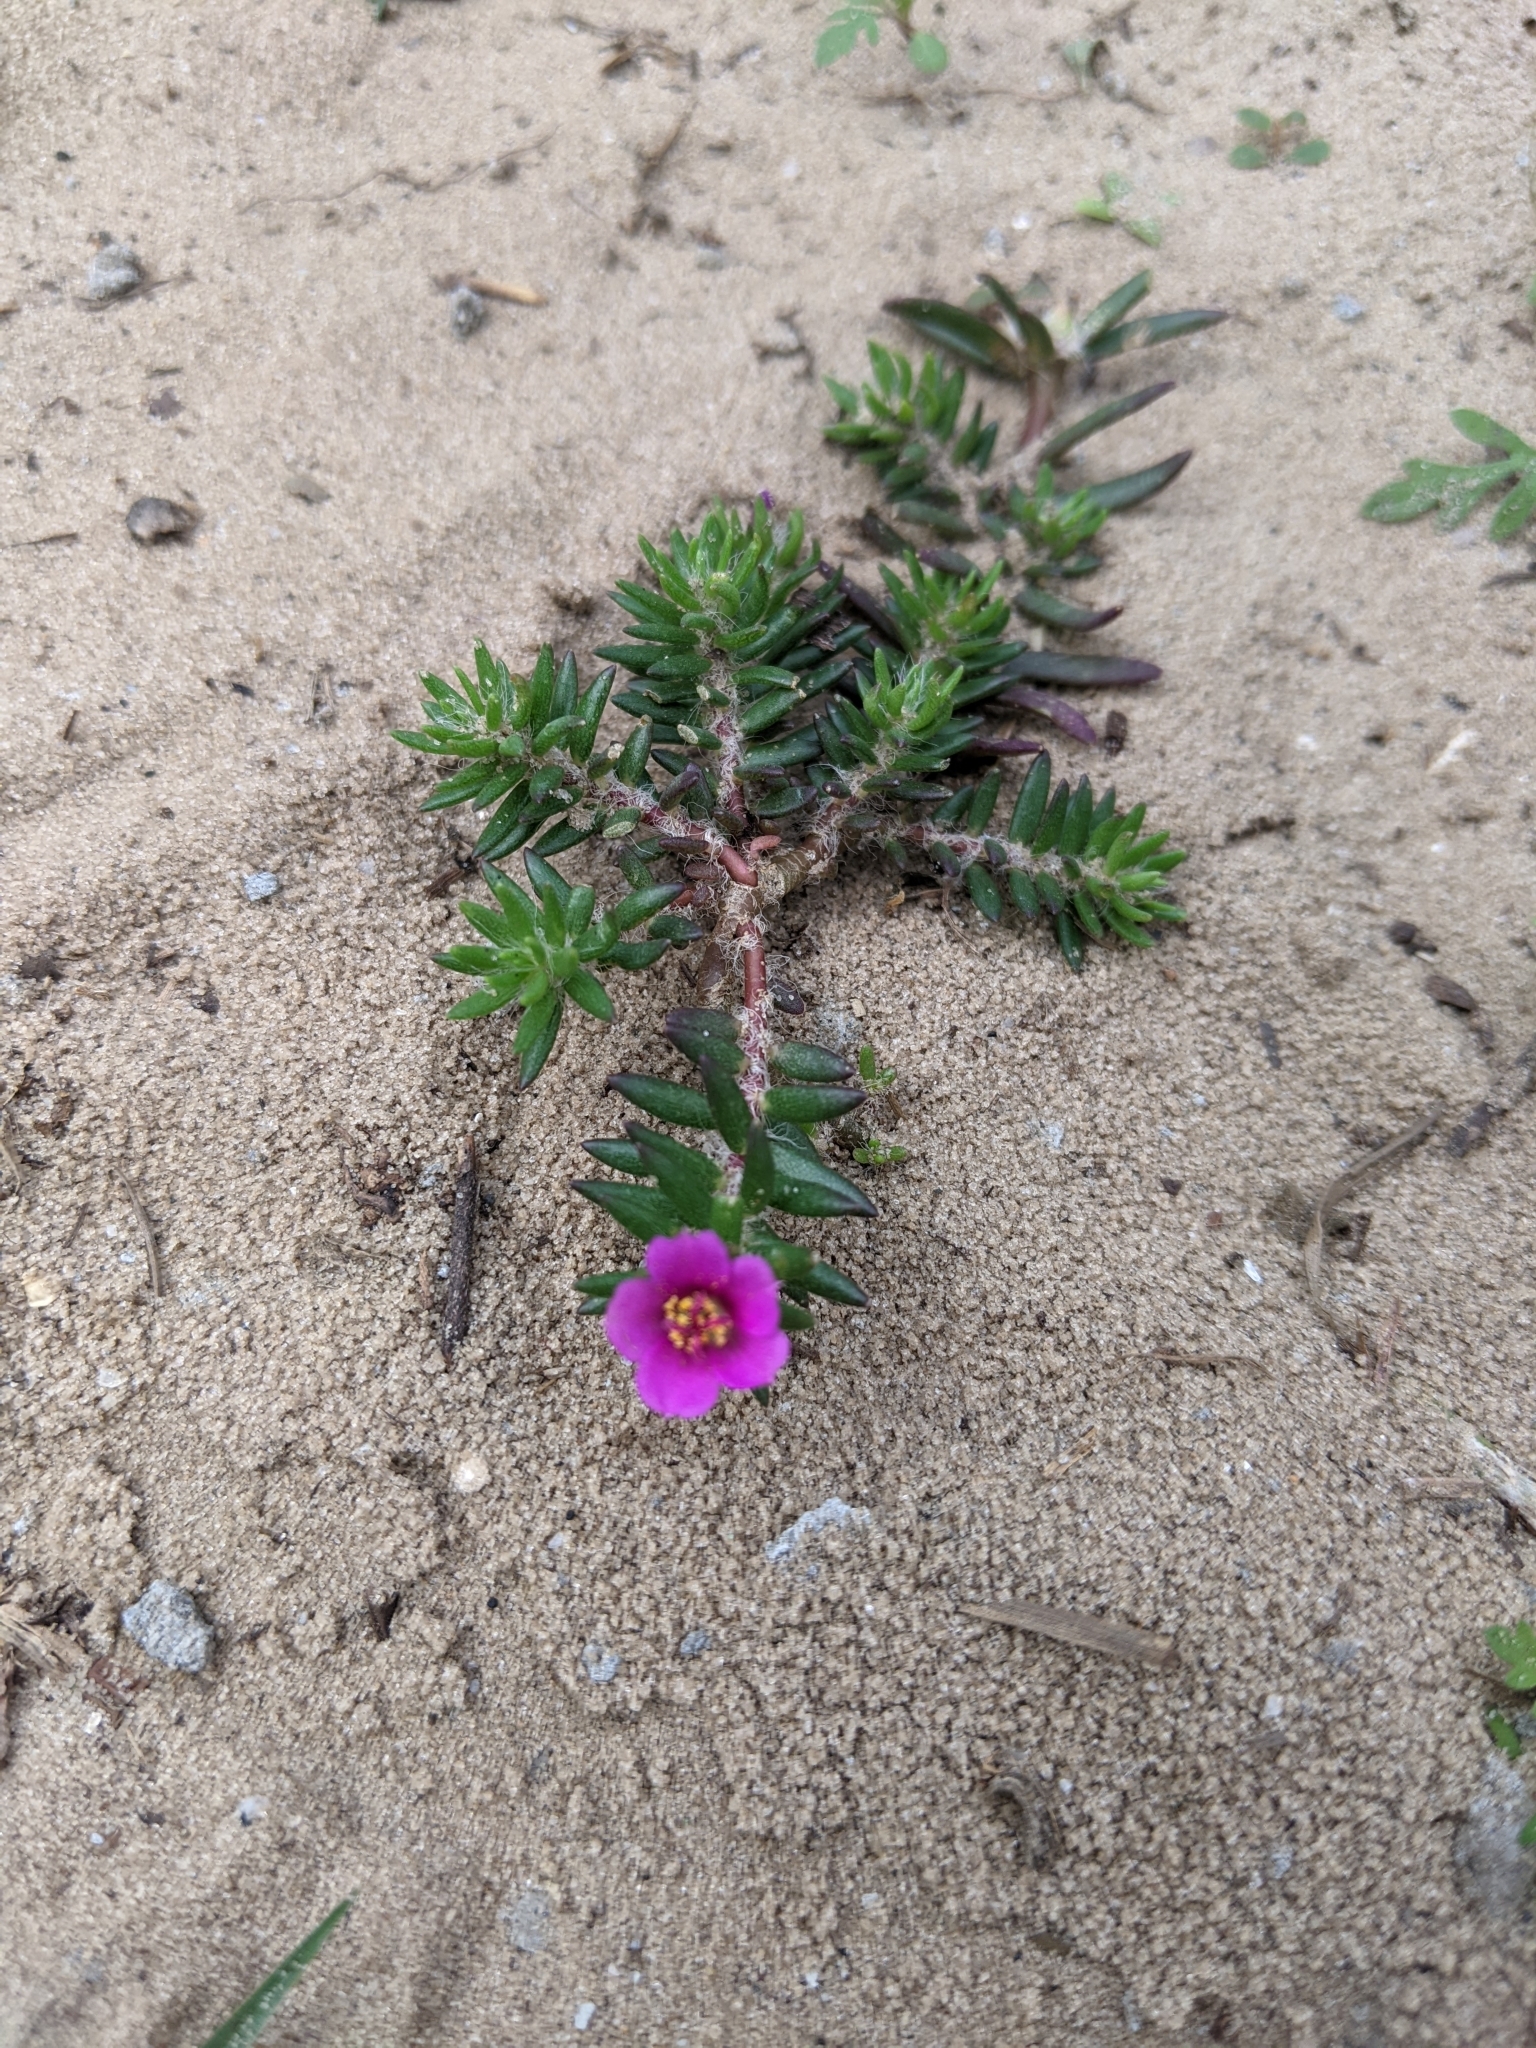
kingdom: Plantae
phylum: Tracheophyta
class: Magnoliopsida
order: Caryophyllales
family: Portulacaceae
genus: Portulaca
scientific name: Portulaca pilosa
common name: Kiss me quick
